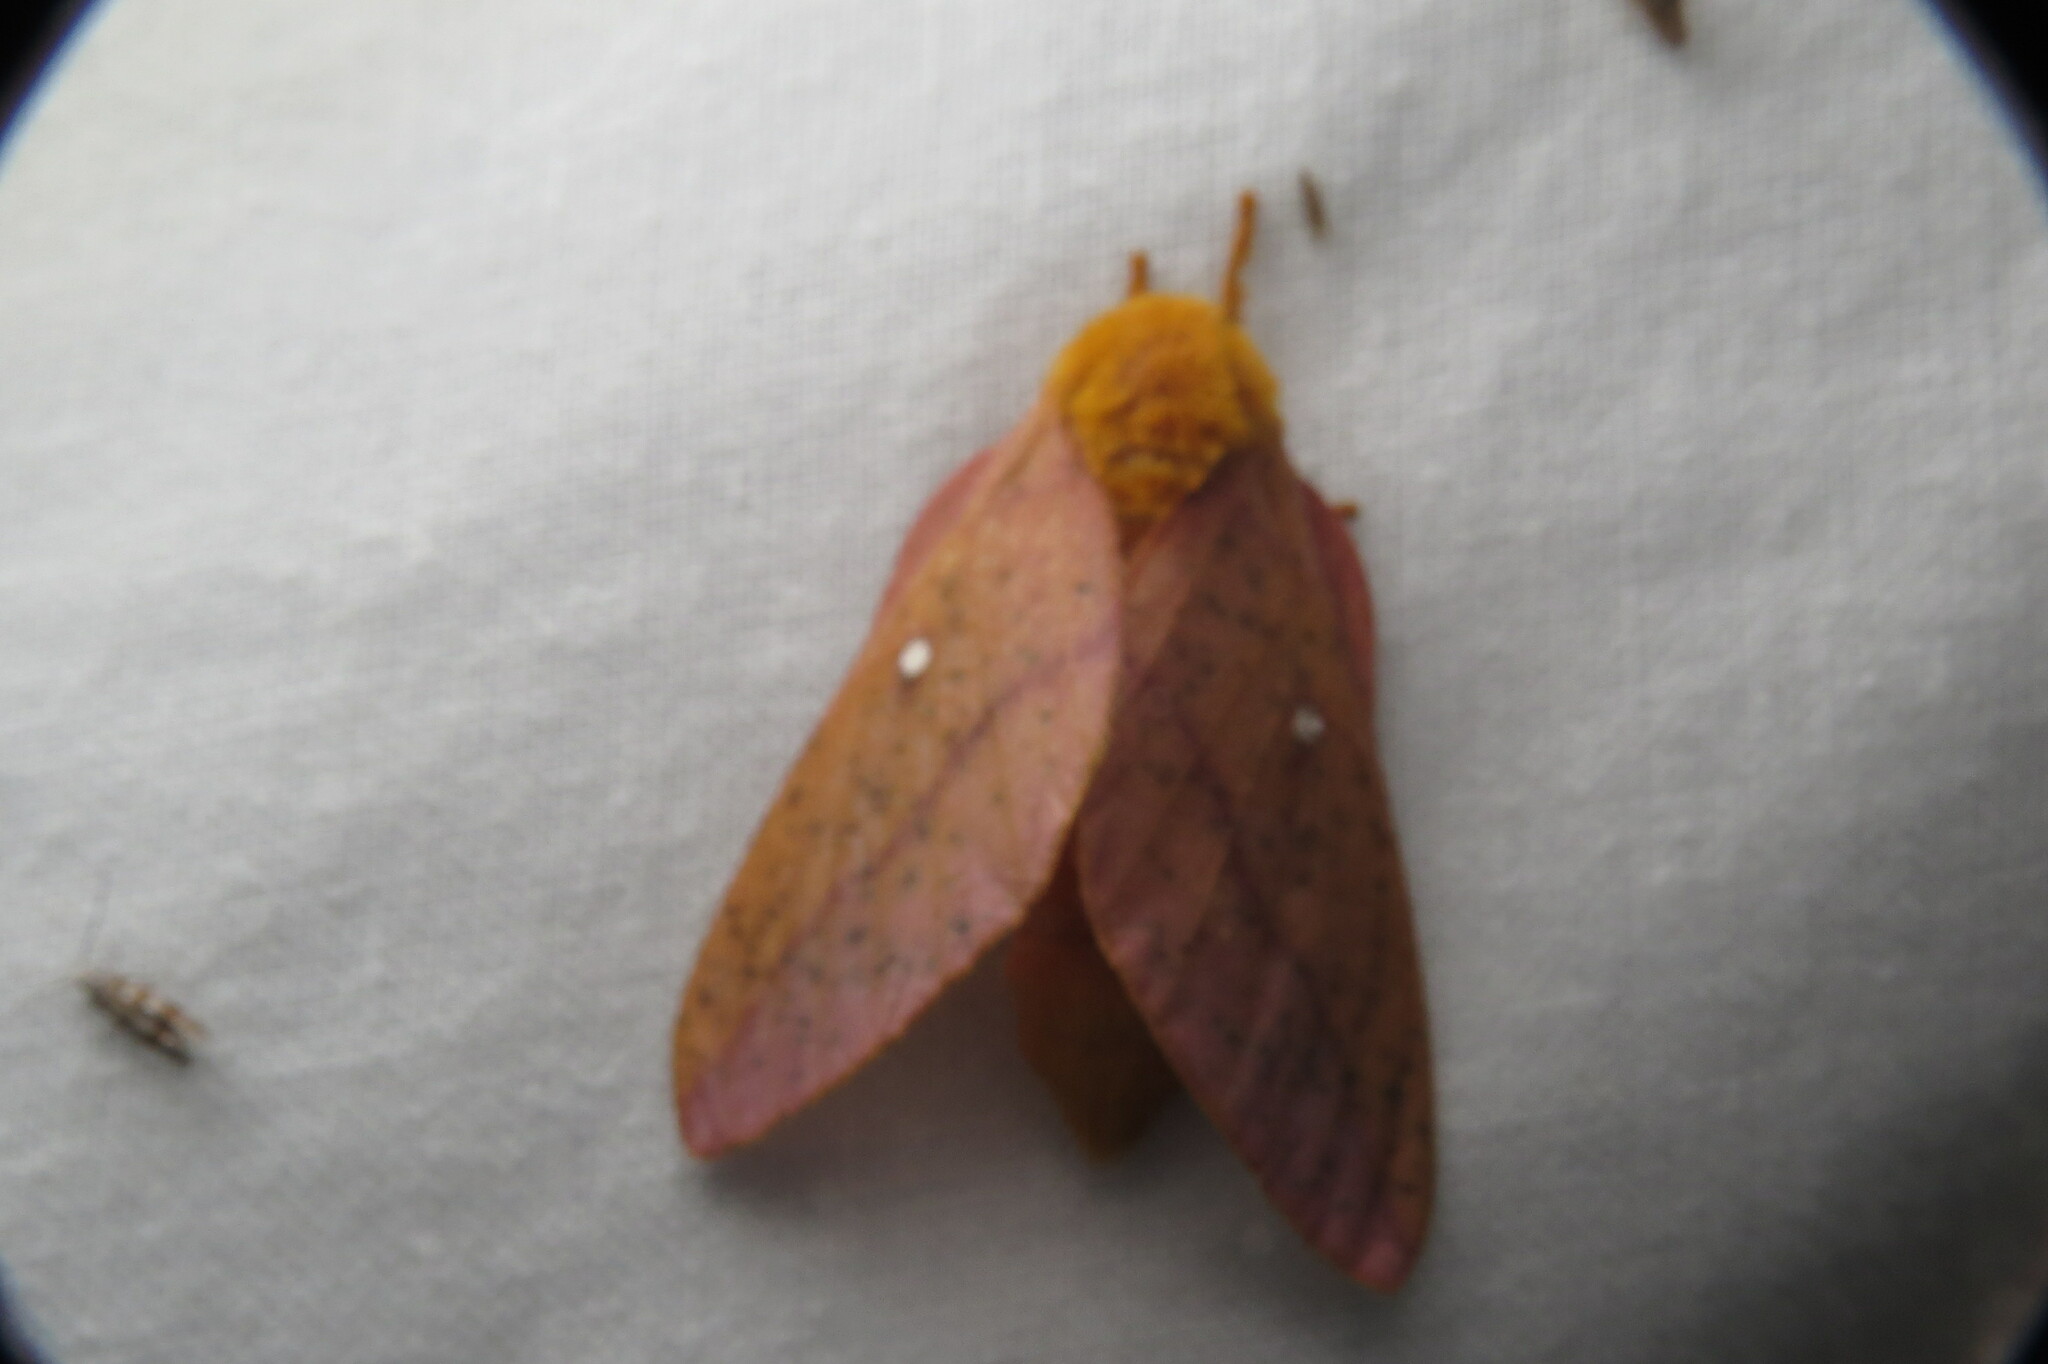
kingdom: Animalia
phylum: Arthropoda
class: Insecta
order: Lepidoptera
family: Saturniidae
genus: Anisota
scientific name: Anisota senatoria
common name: Orange-striped oakworm moth
